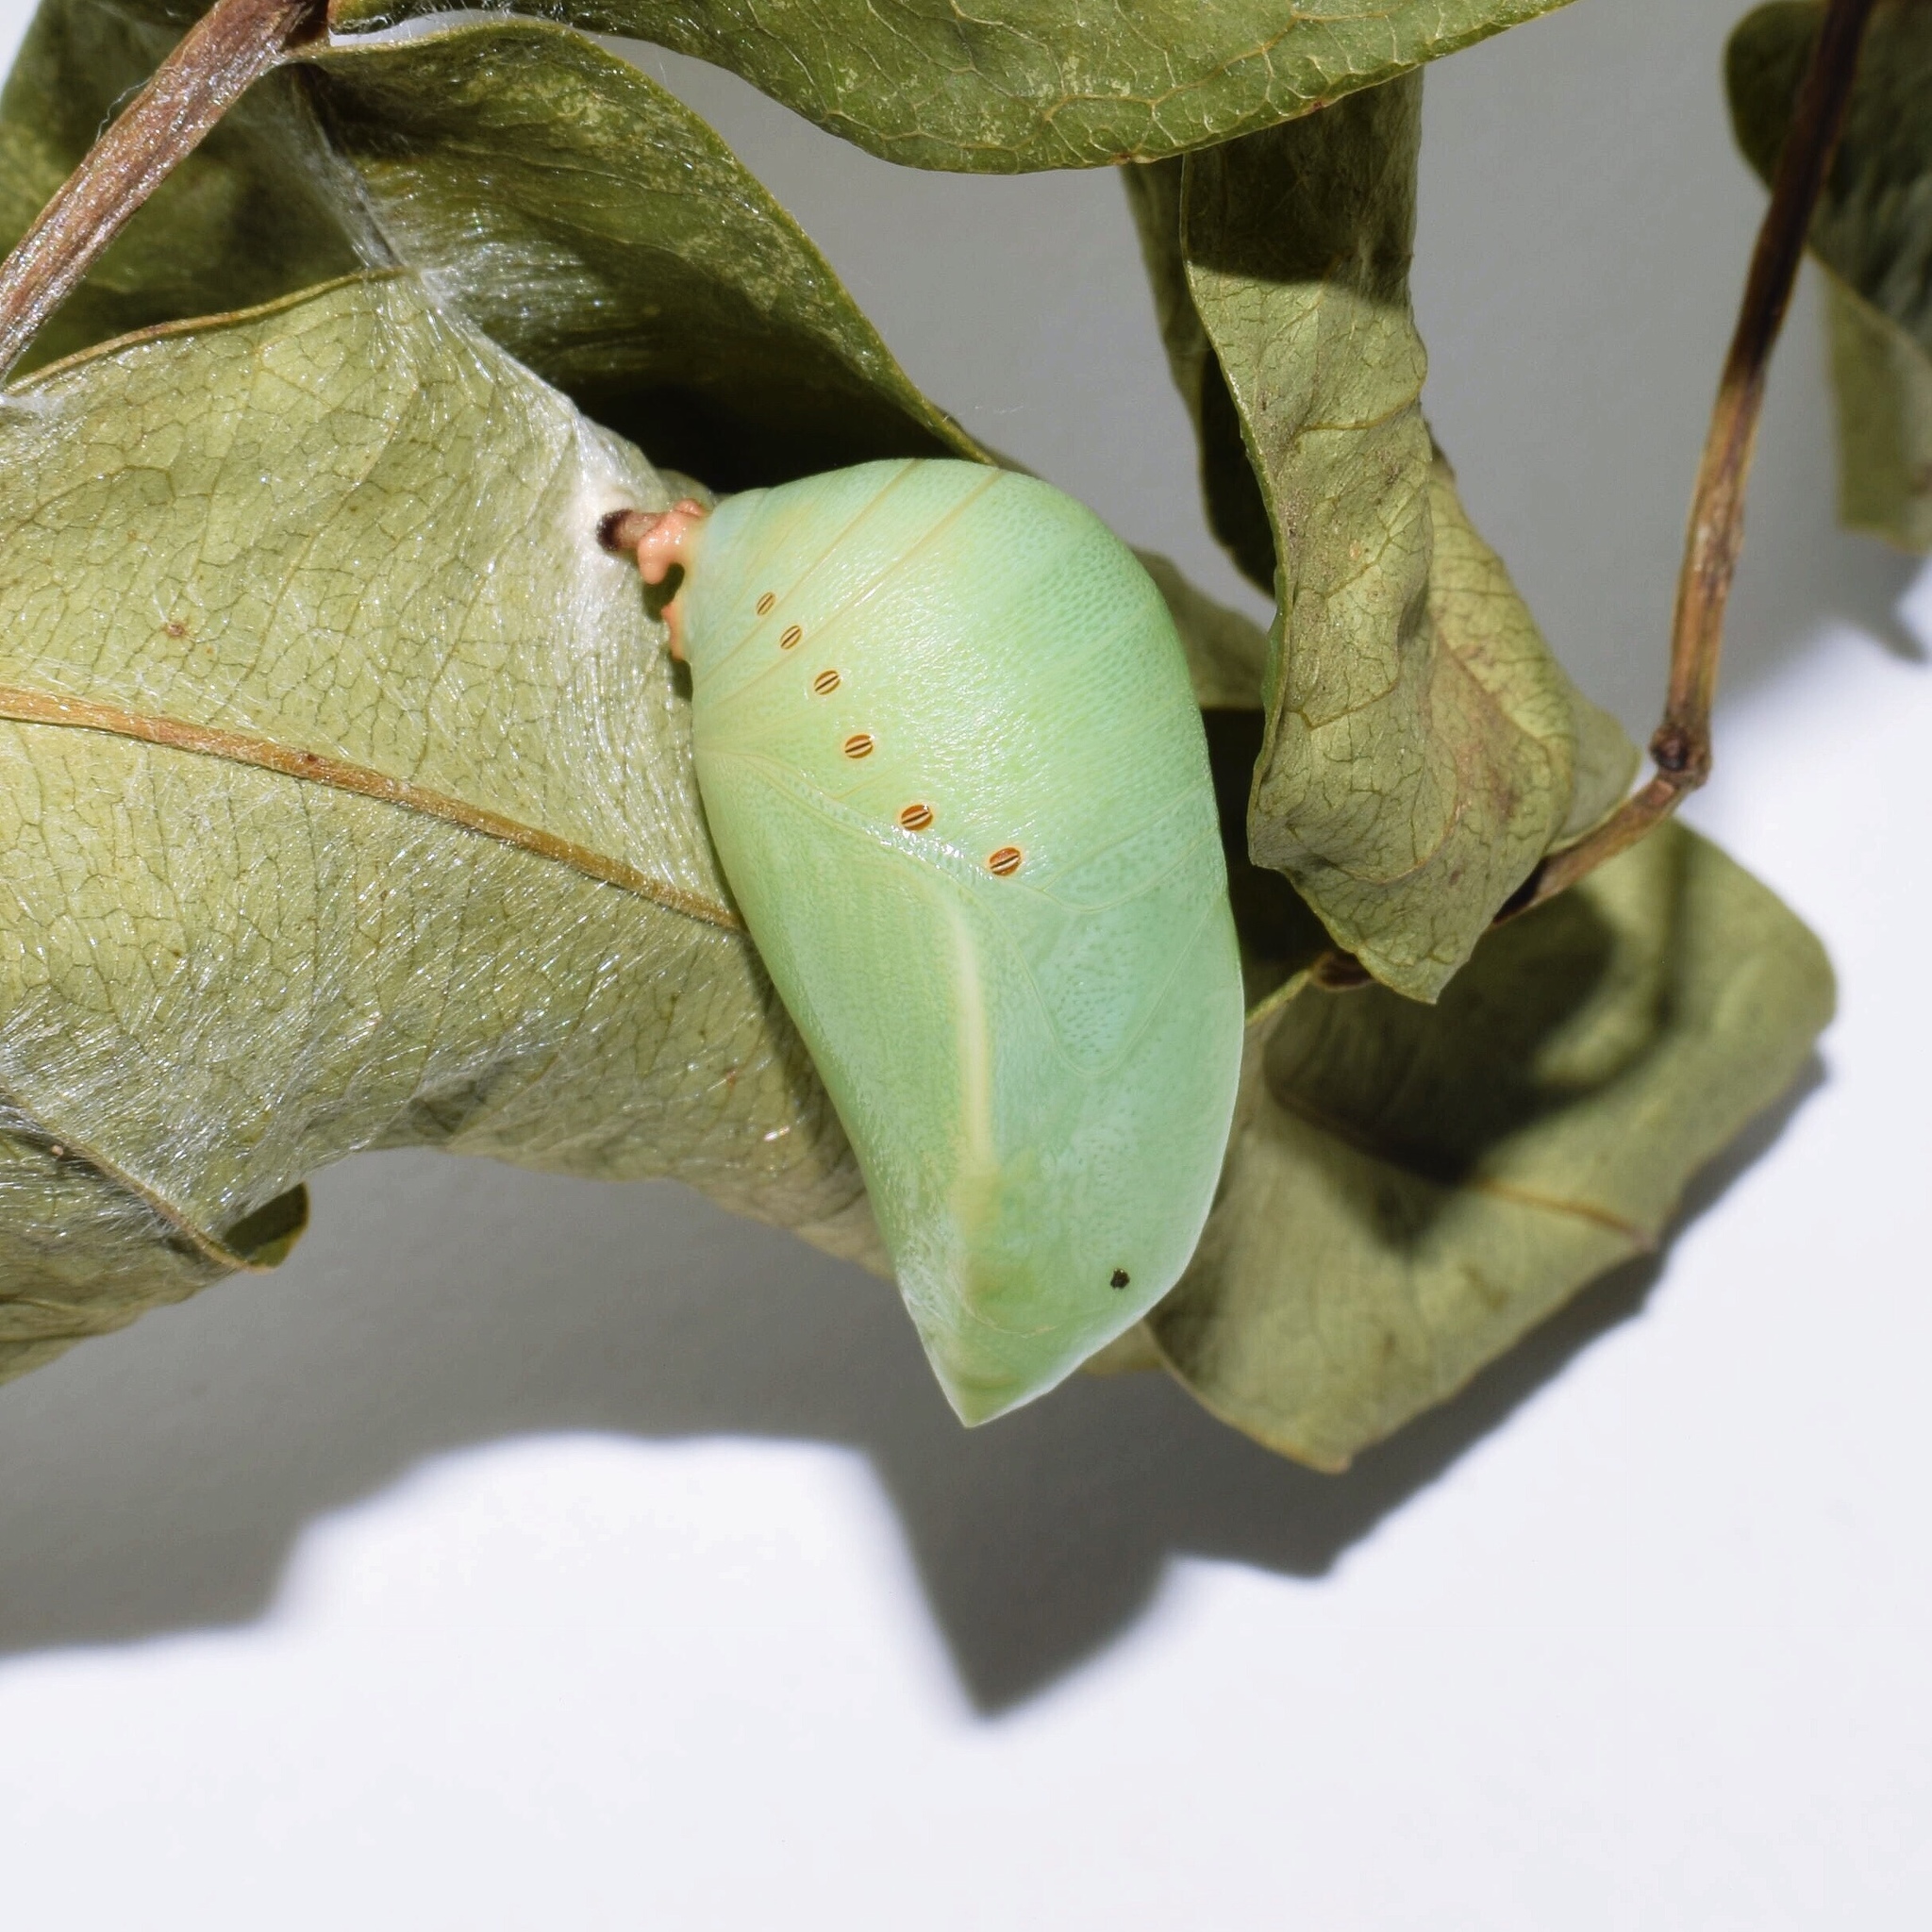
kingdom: Animalia
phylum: Arthropoda
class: Insecta
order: Lepidoptera
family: Nymphalidae
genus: Charaxes
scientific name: Charaxes druceanus
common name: Silver-barred charaxes
